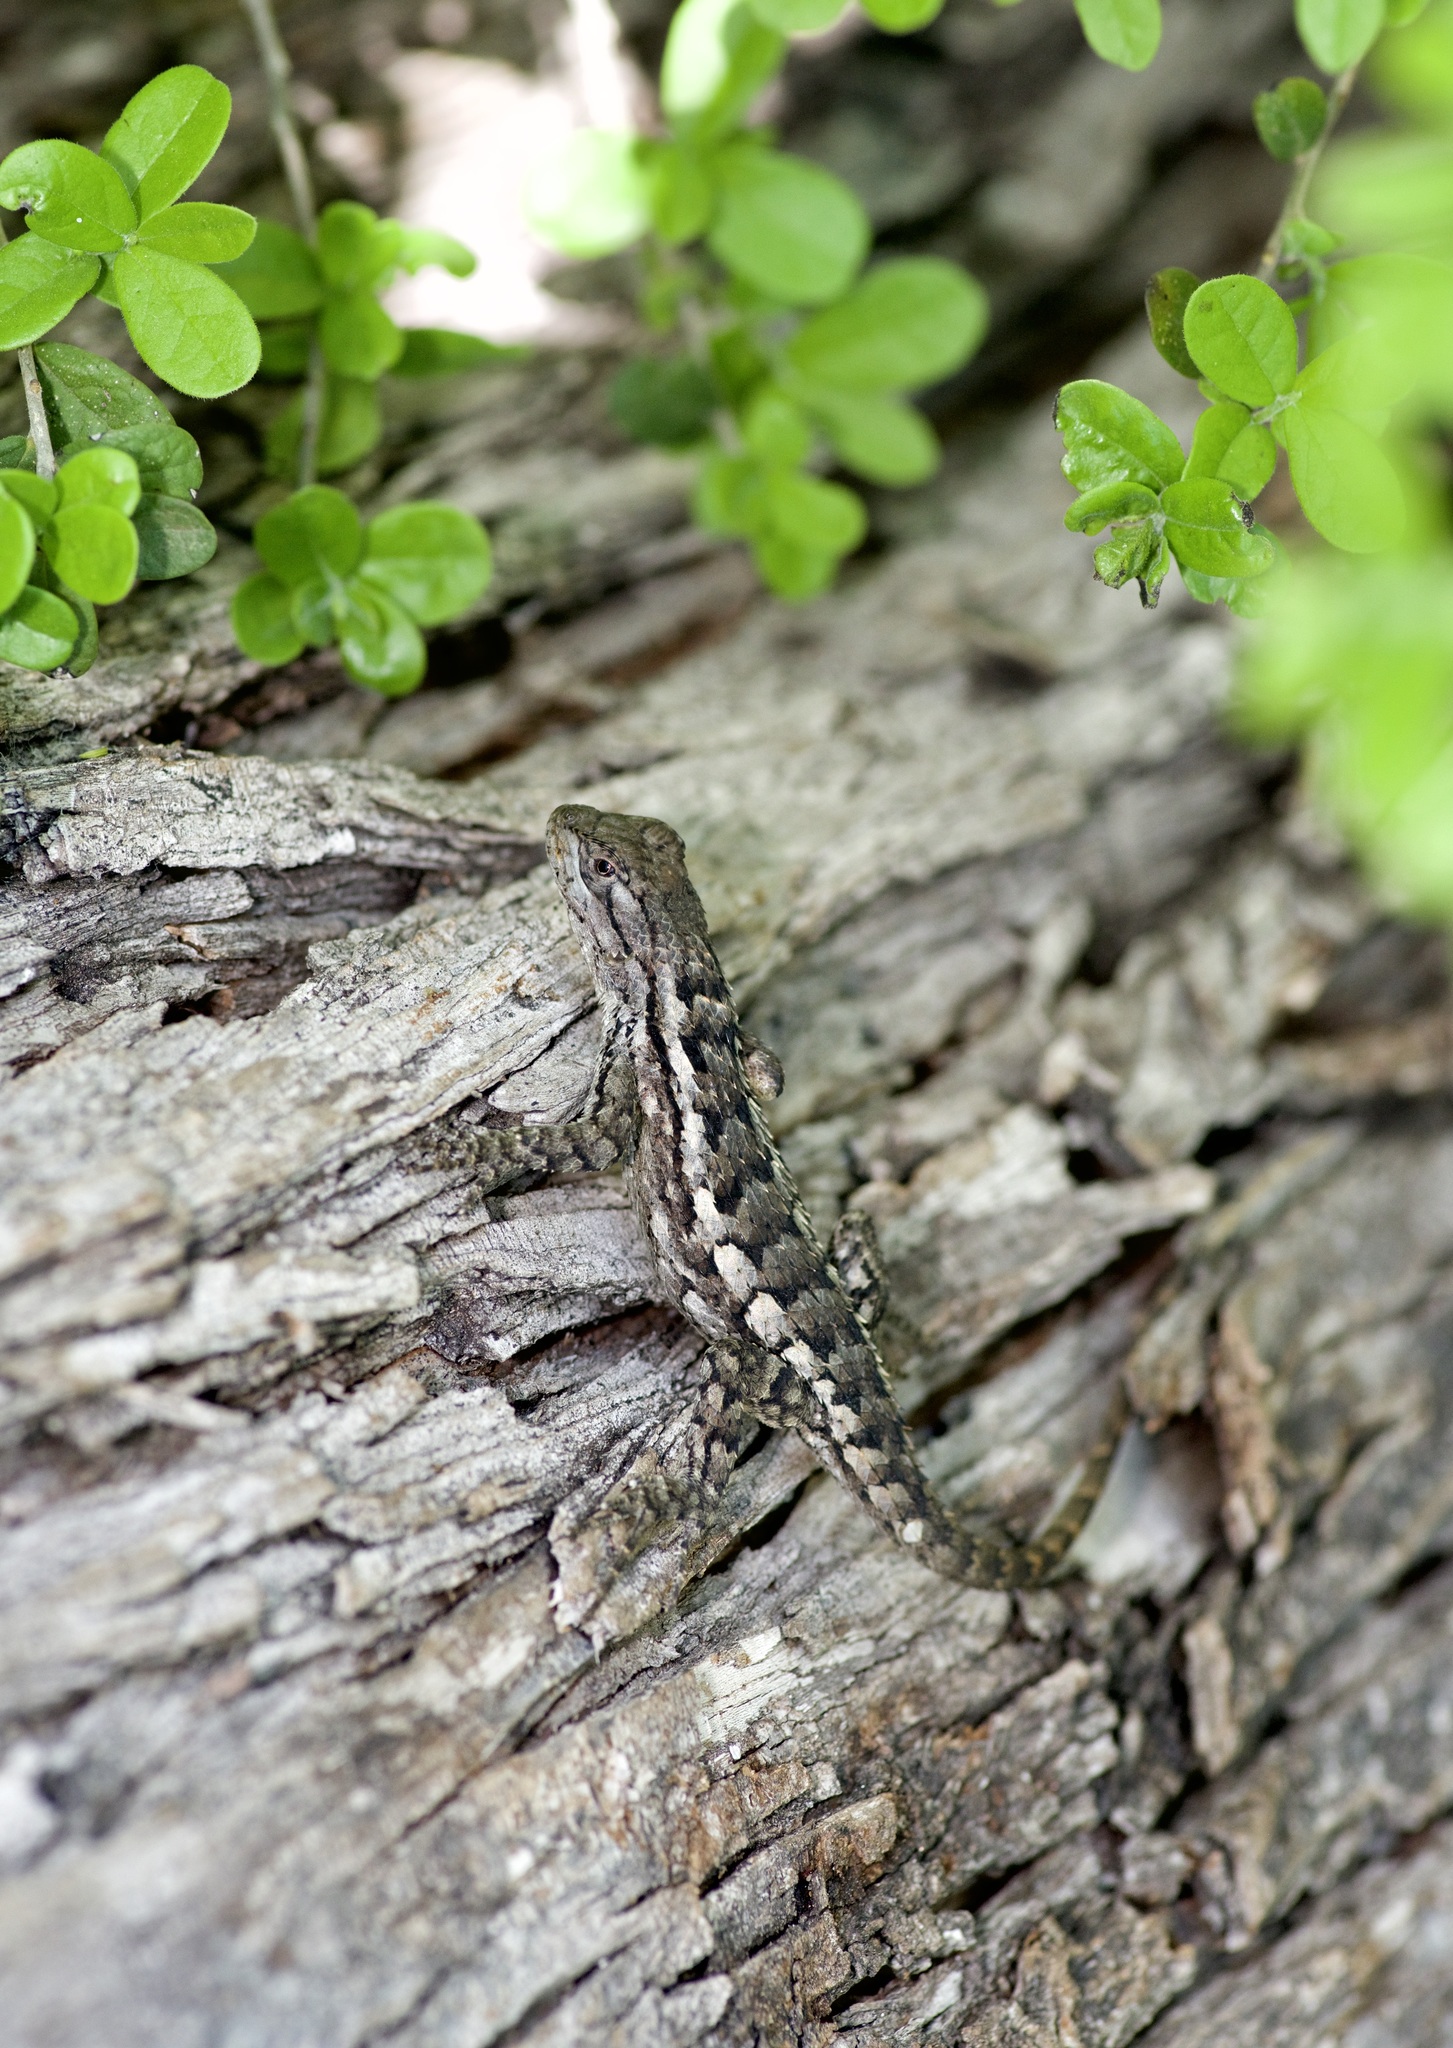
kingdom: Animalia
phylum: Chordata
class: Squamata
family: Phrynosomatidae
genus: Sceloporus
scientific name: Sceloporus olivaceus
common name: Texas spiny lizard
